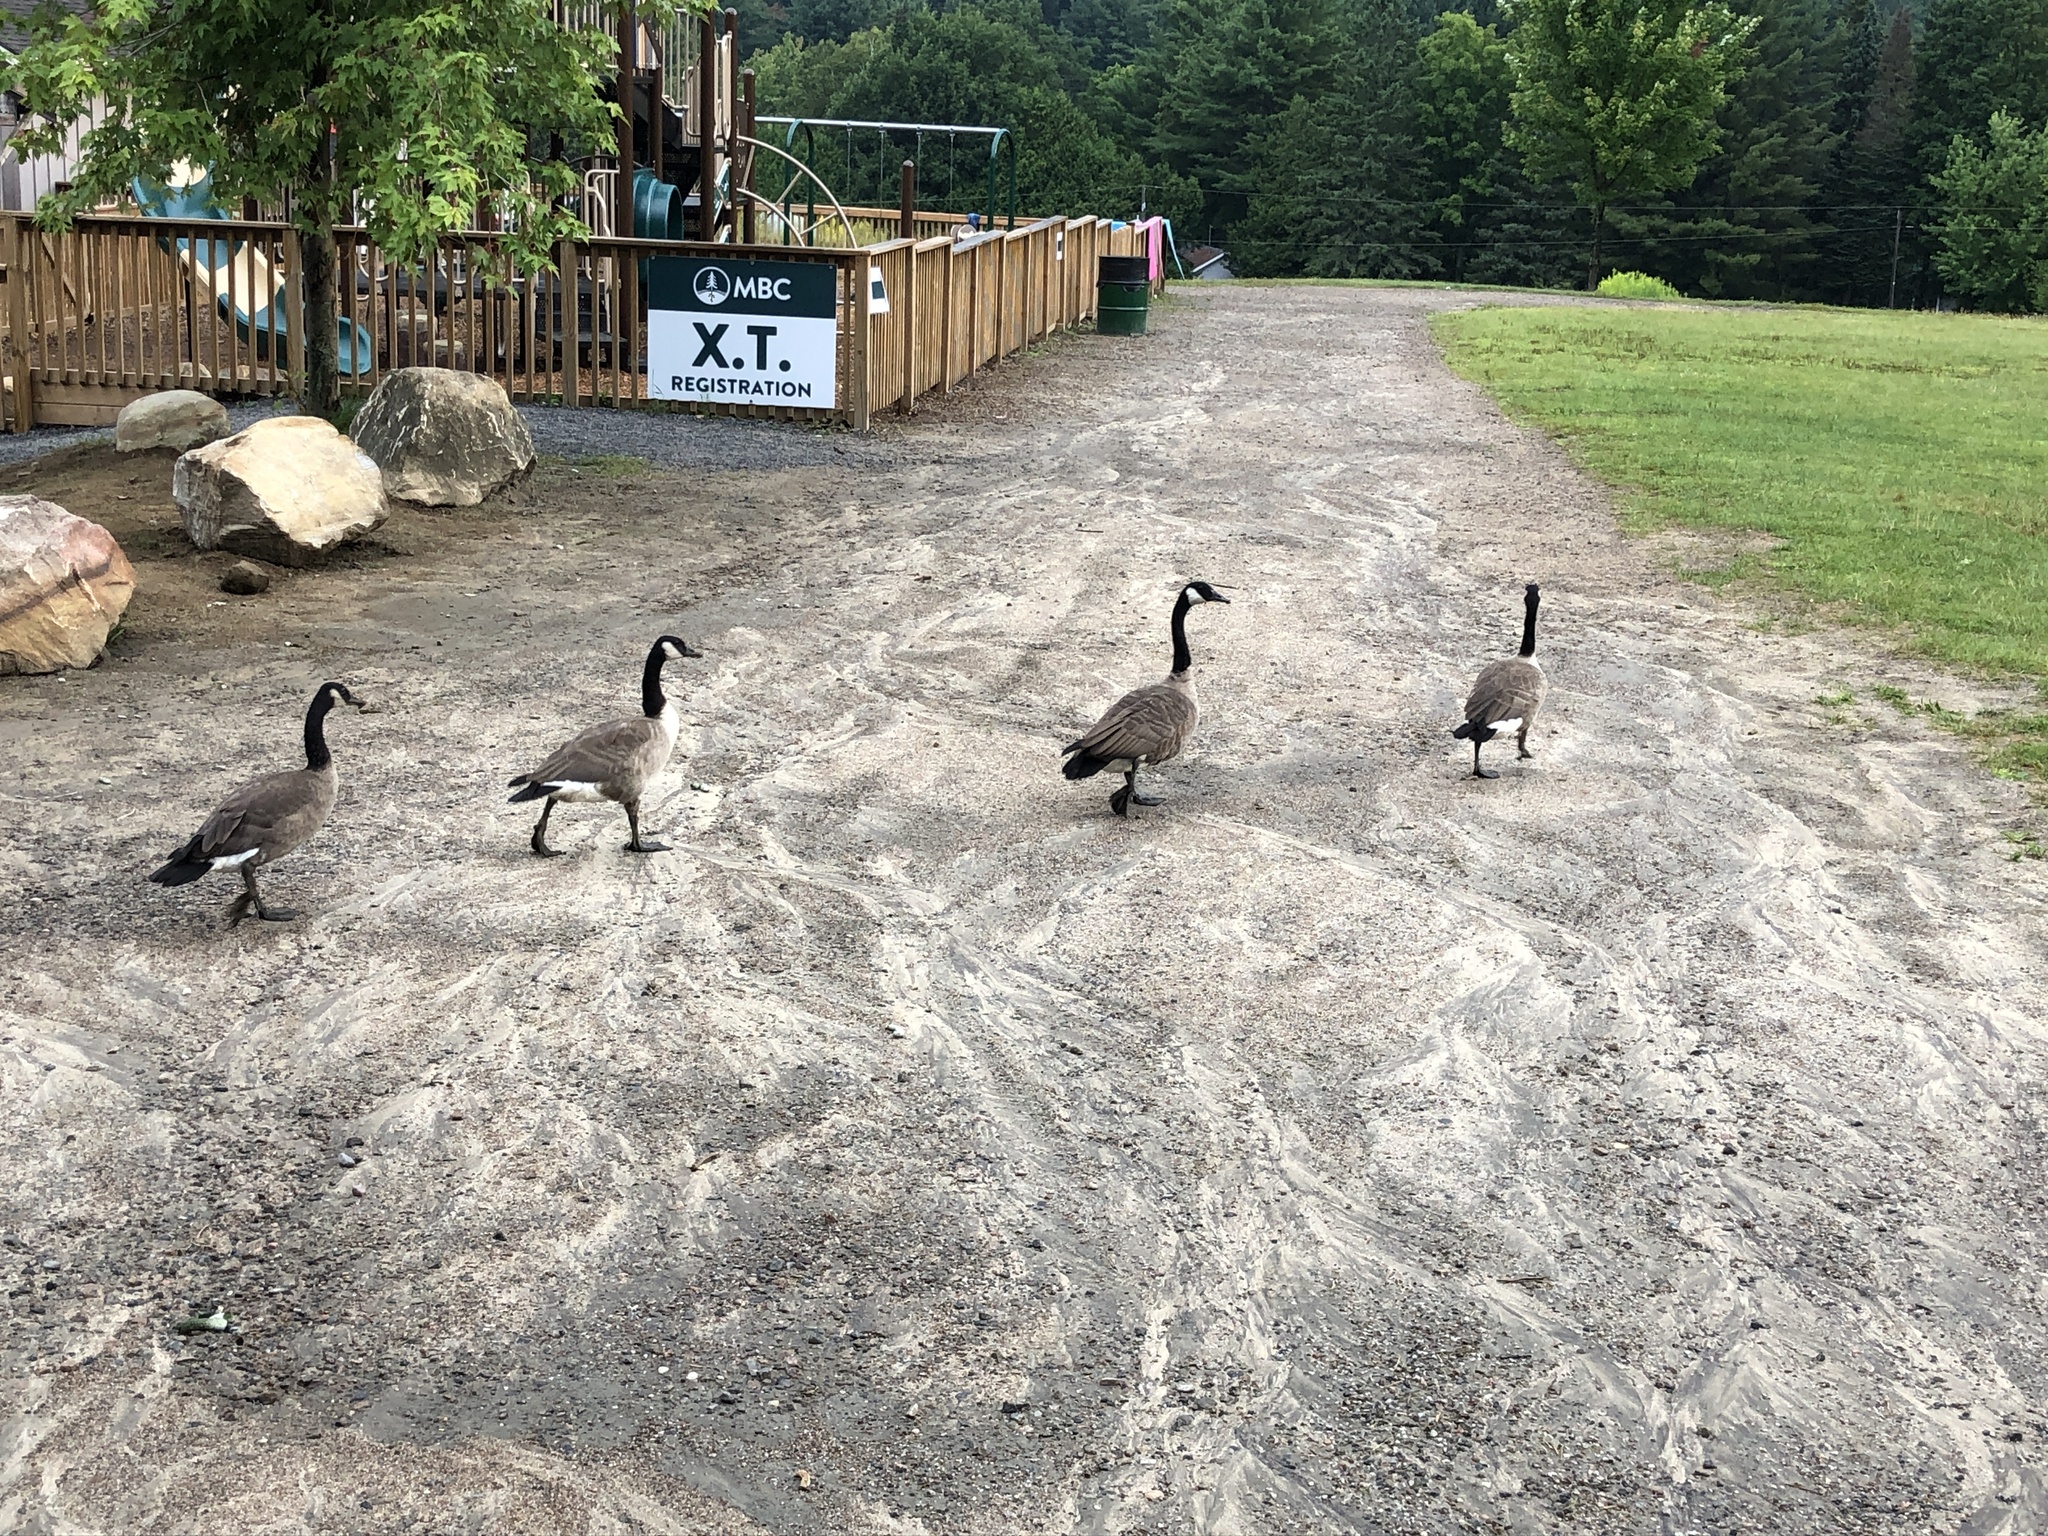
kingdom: Animalia
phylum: Chordata
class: Aves
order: Anseriformes
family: Anatidae
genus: Branta
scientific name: Branta canadensis
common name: Canada goose
